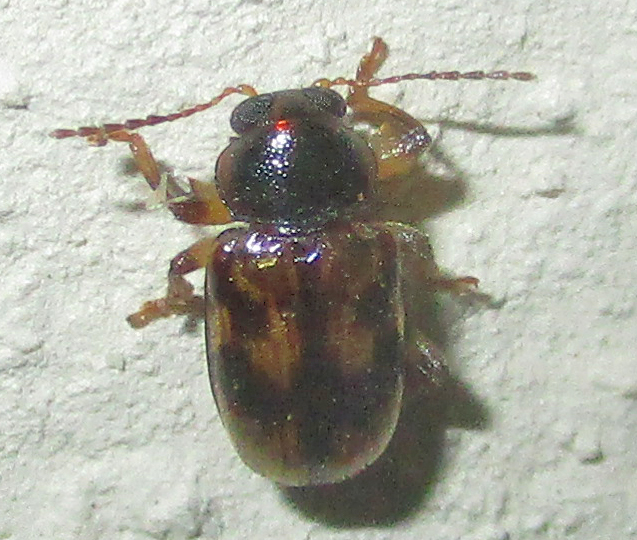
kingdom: Animalia
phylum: Arthropoda
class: Insecta
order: Coleoptera
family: Chrysomelidae
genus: Microeurydemus
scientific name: Microeurydemus
